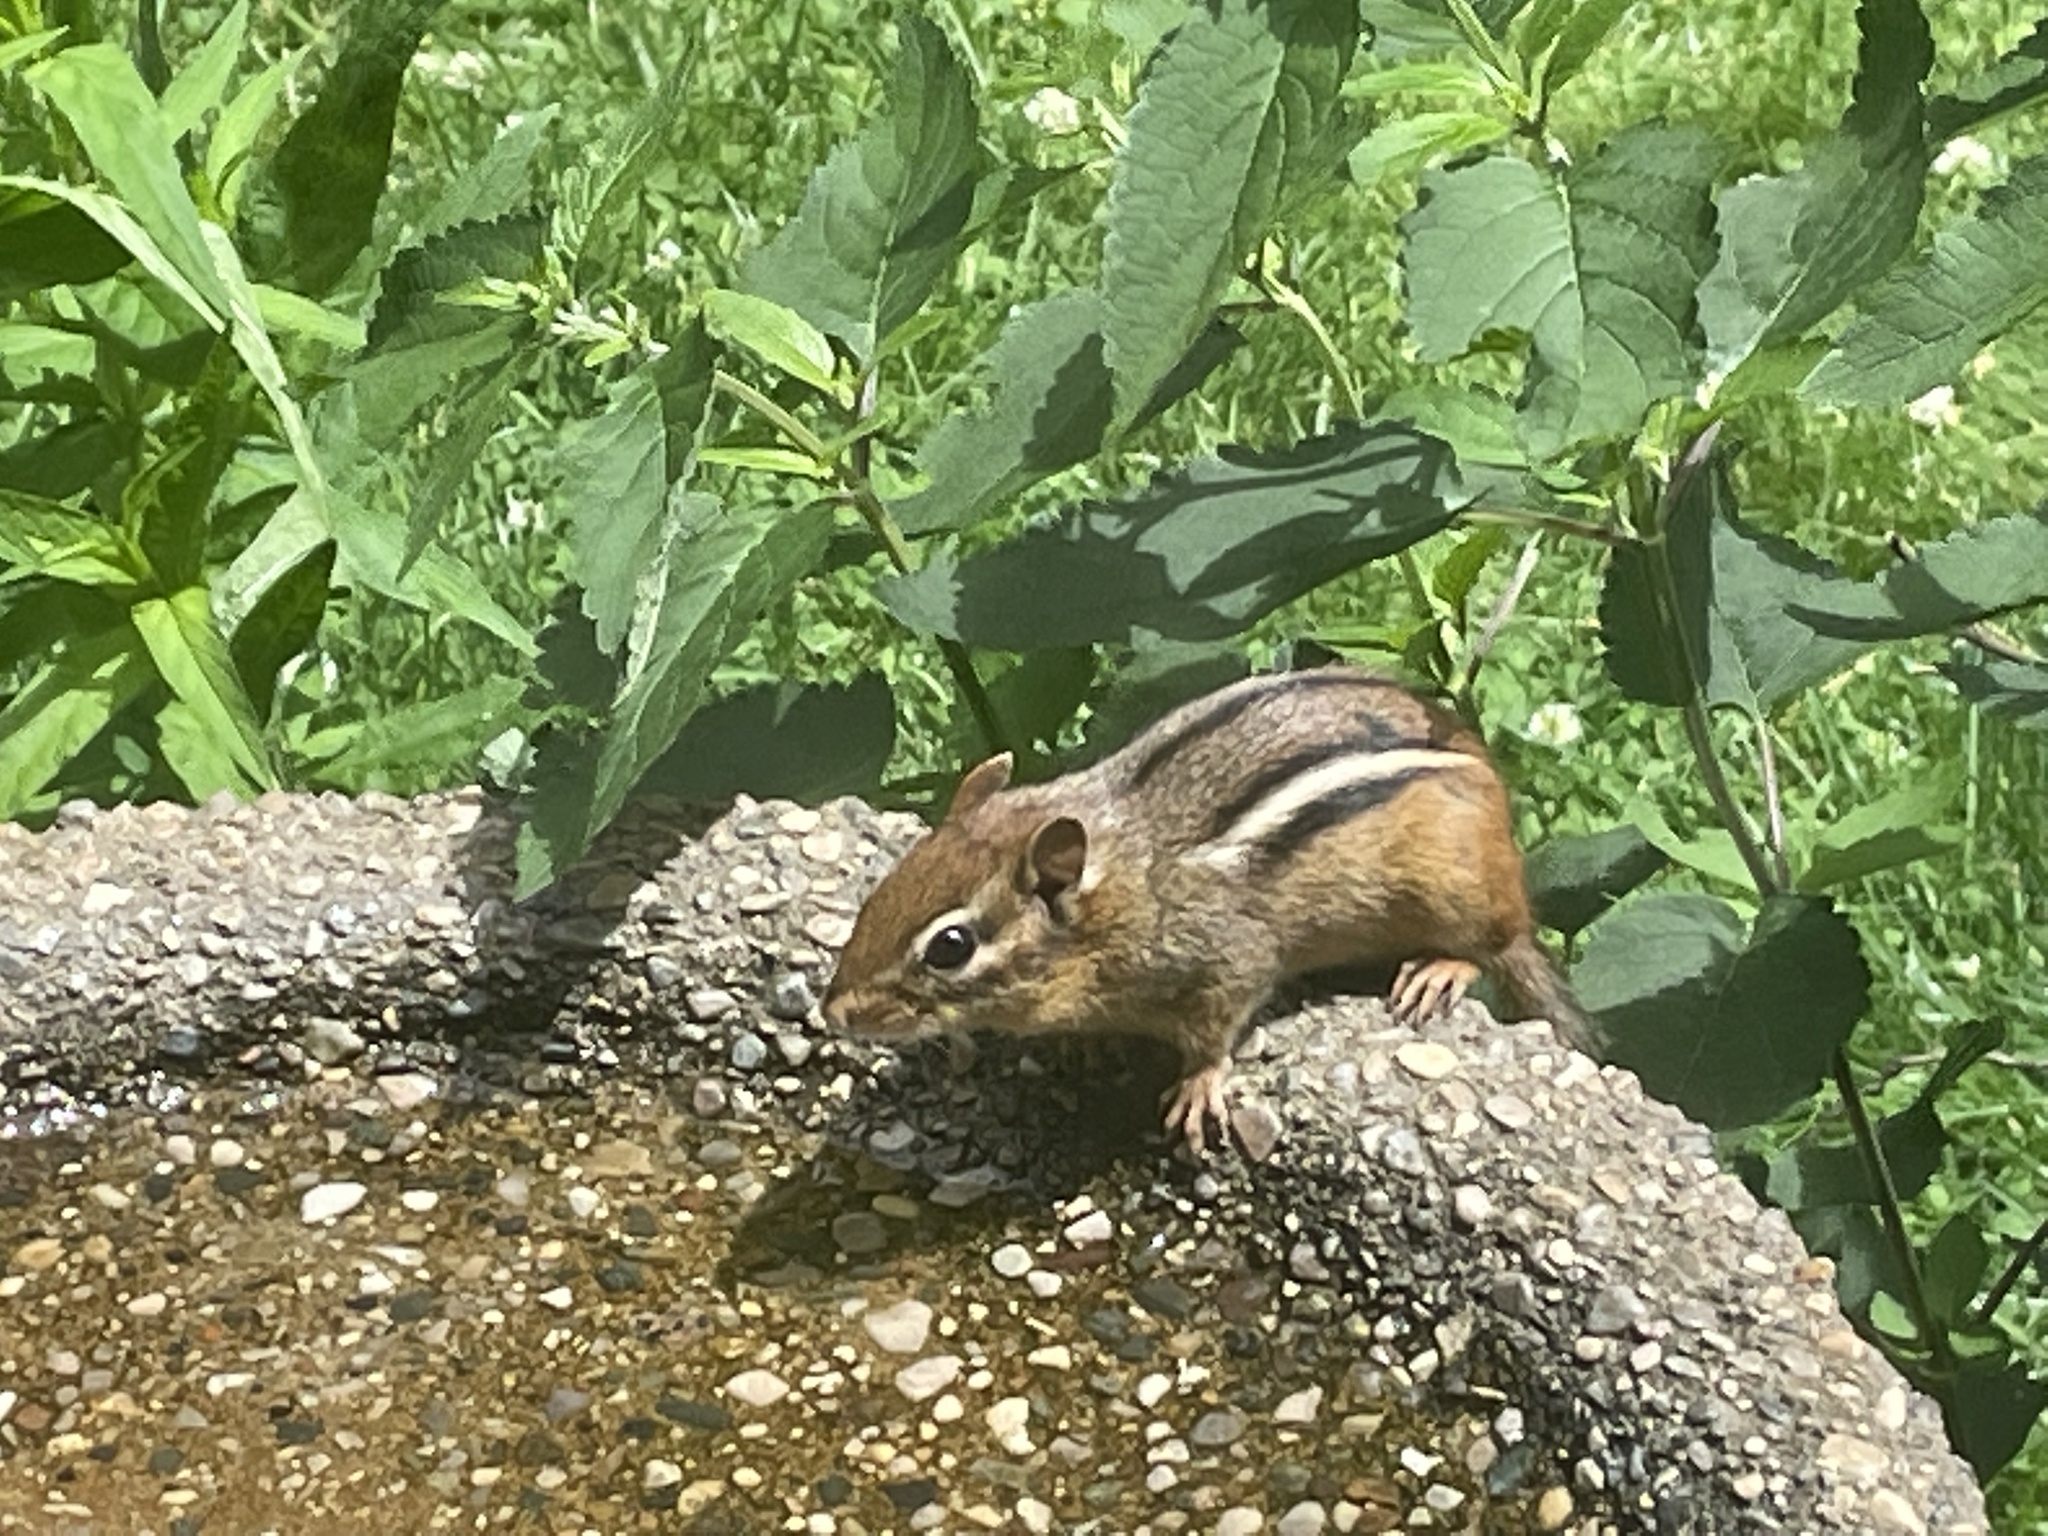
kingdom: Animalia
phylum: Chordata
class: Mammalia
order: Rodentia
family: Sciuridae
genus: Tamias
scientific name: Tamias striatus
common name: Eastern chipmunk
